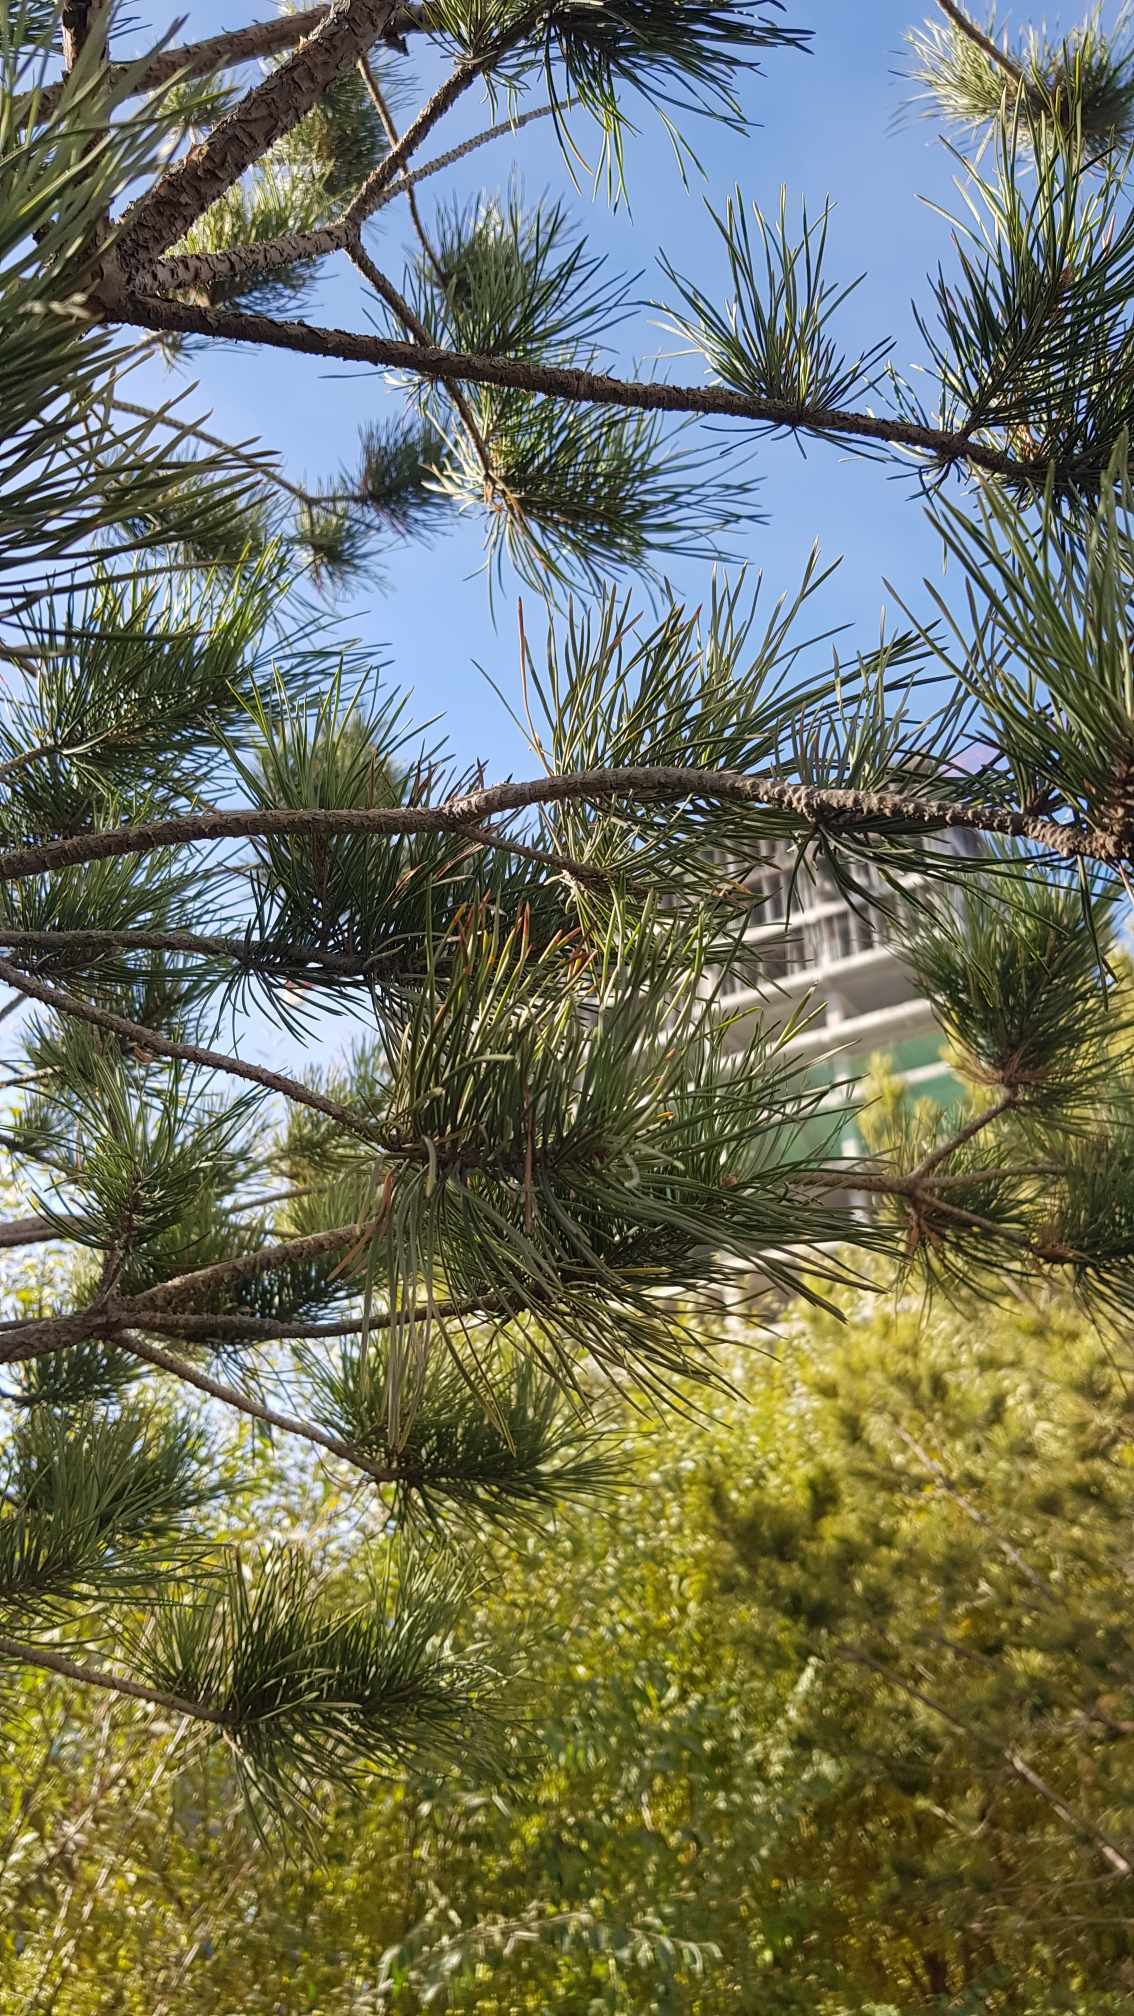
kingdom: Plantae
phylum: Tracheophyta
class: Pinopsida
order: Pinales
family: Pinaceae
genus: Pinus
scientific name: Pinus sylvestris
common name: Scots pine
